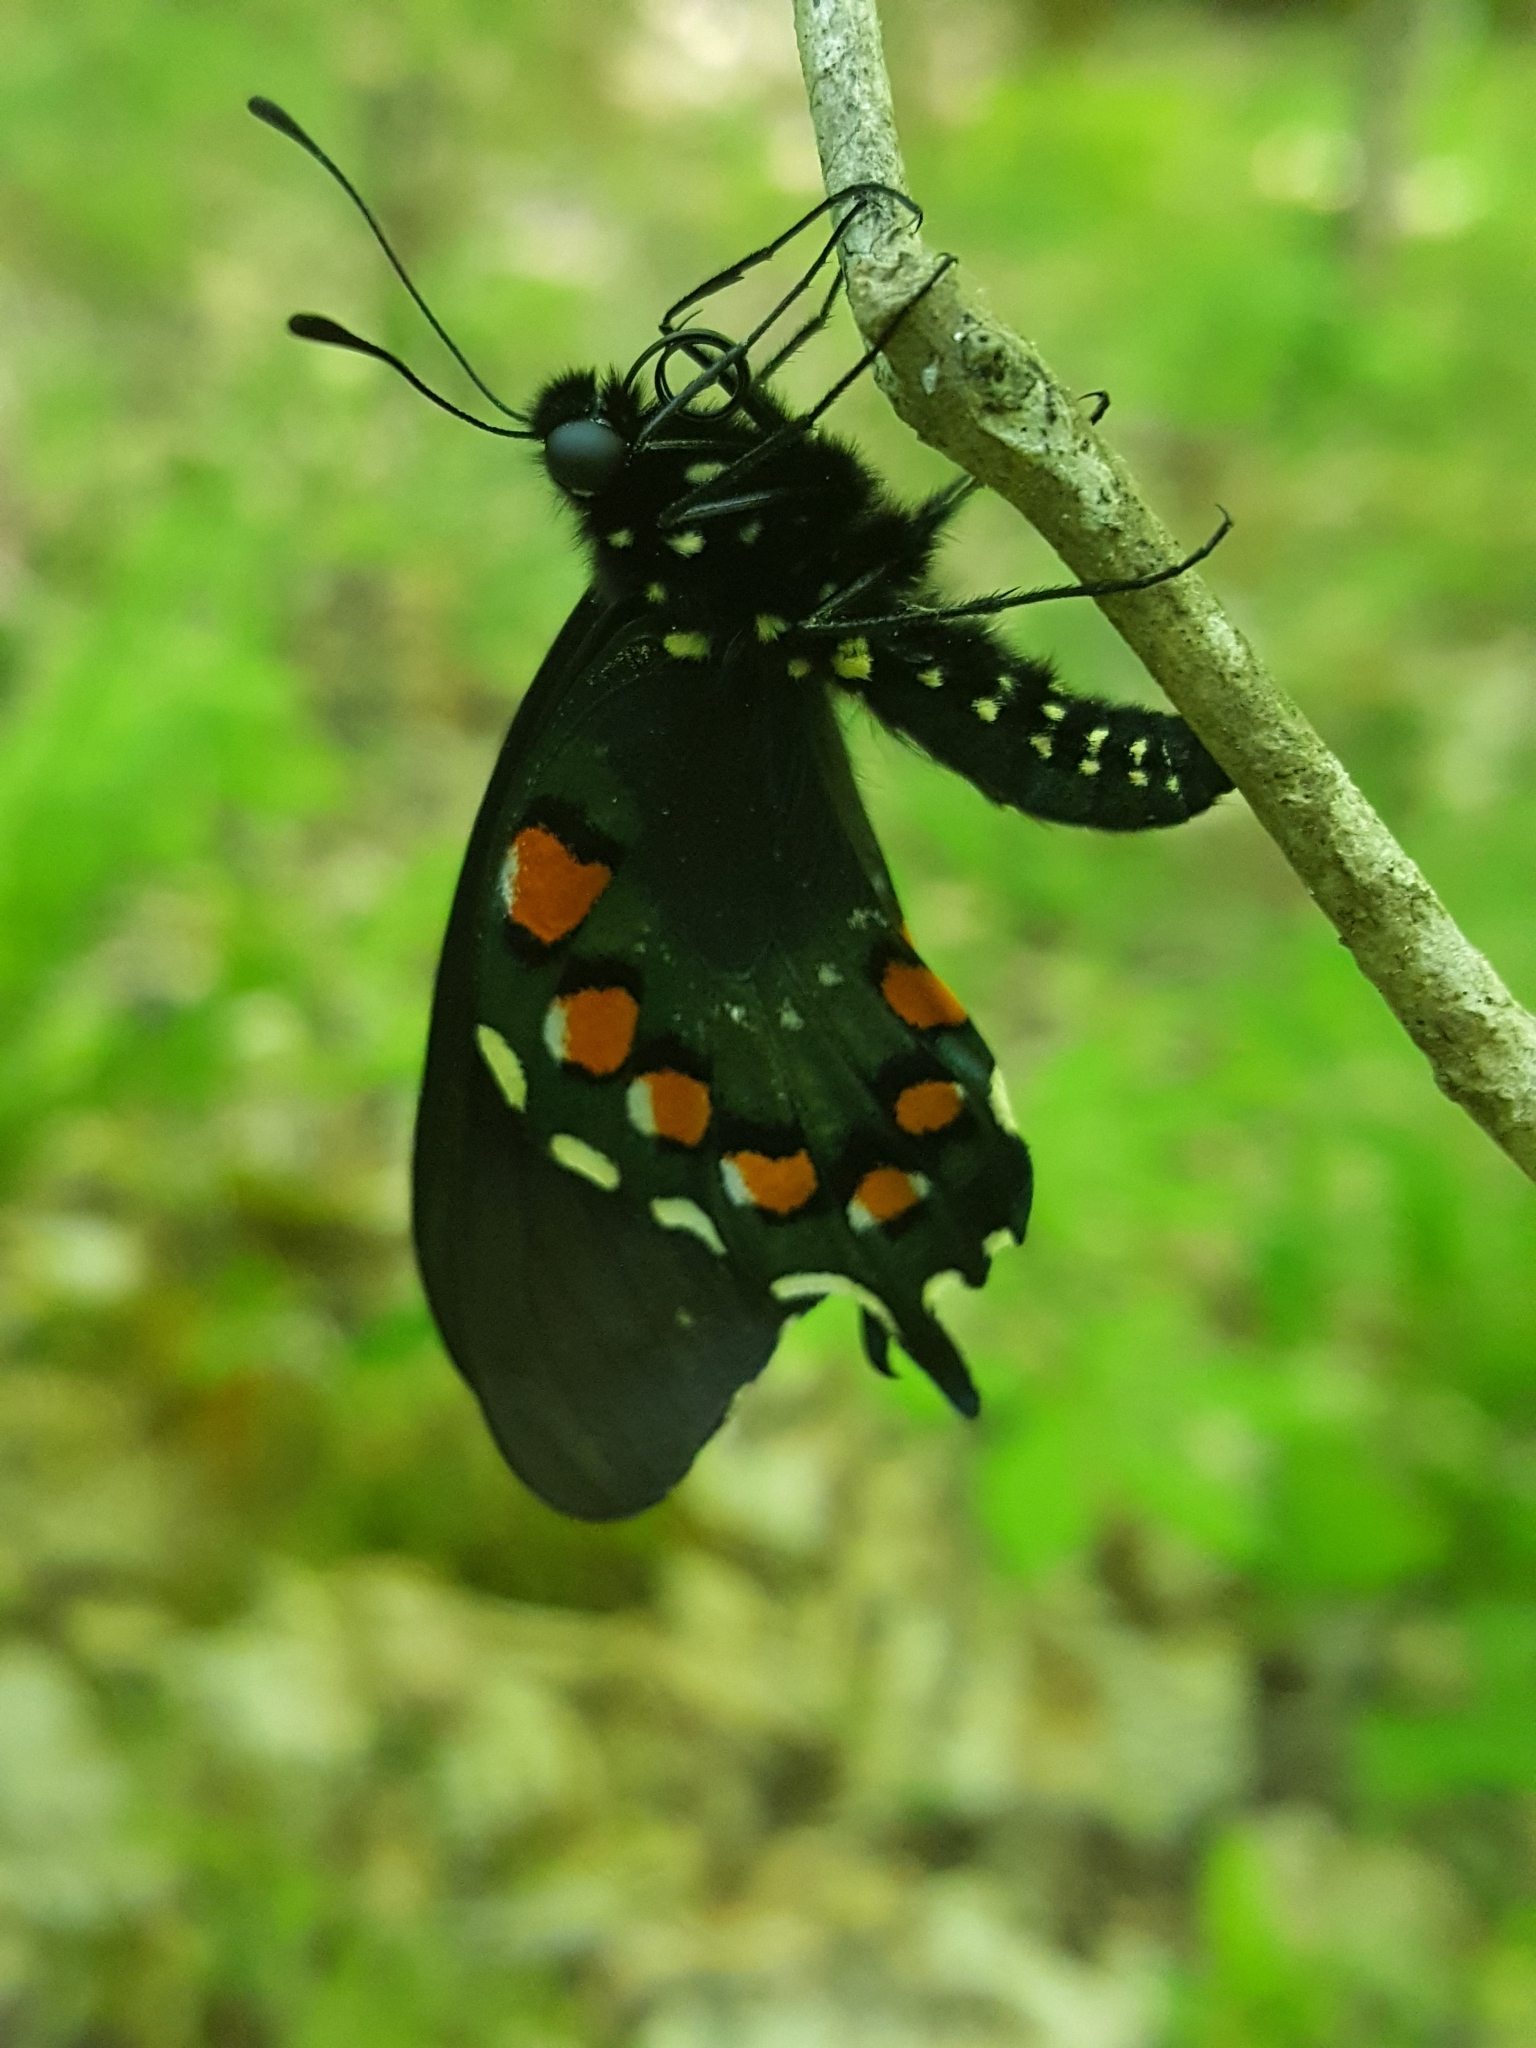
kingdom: Animalia
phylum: Arthropoda
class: Insecta
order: Lepidoptera
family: Papilionidae
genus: Battus
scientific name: Battus philenor
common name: Pipevine swallowtail
